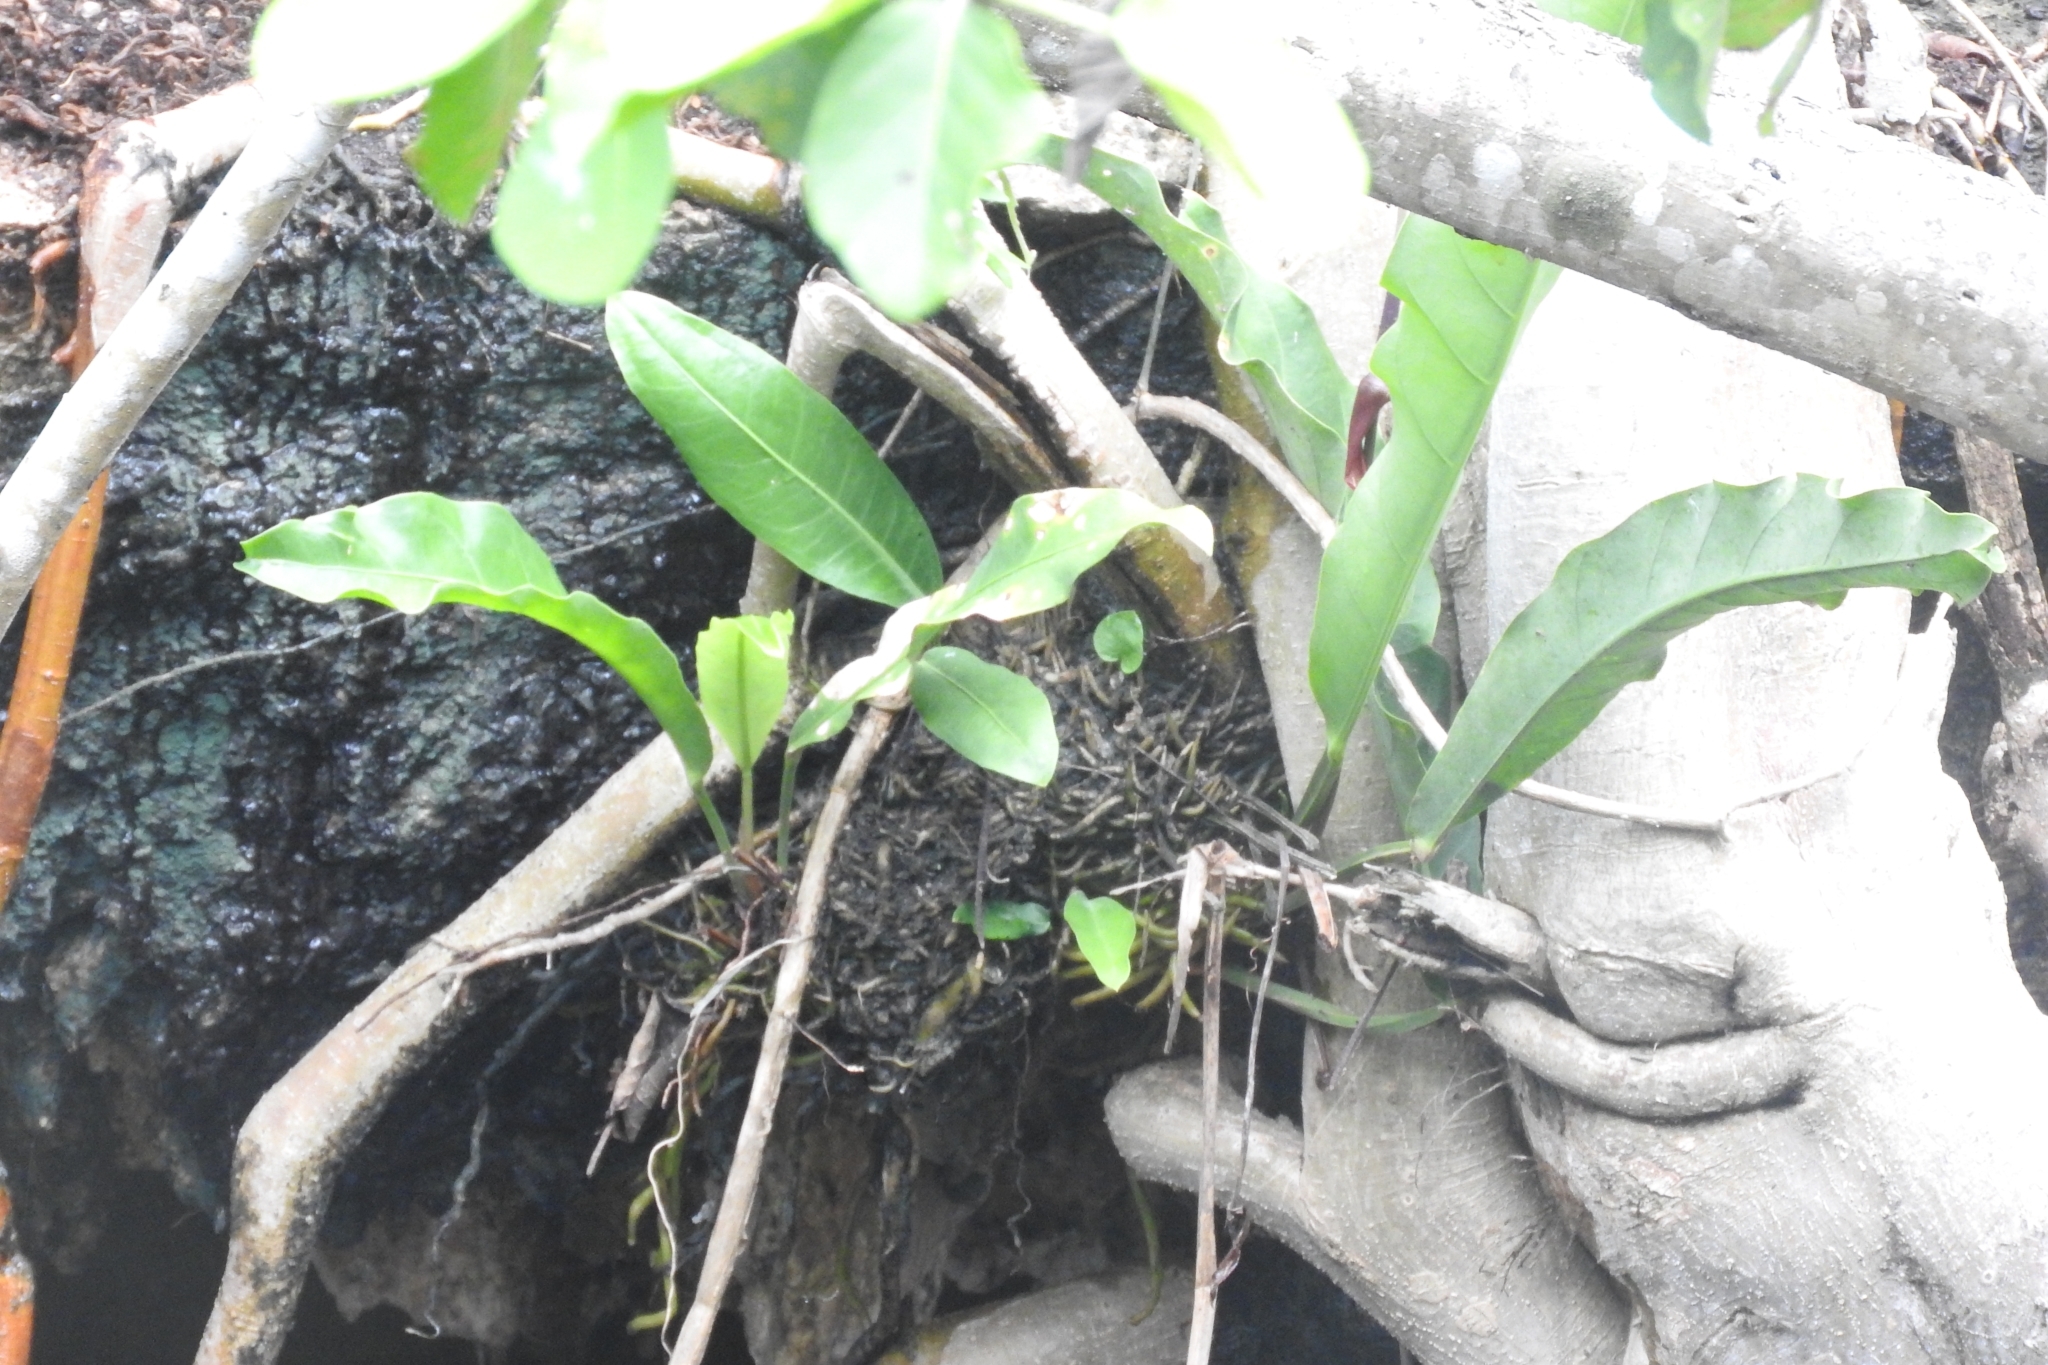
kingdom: Plantae
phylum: Tracheophyta
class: Liliopsida
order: Alismatales
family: Araceae
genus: Anthurium
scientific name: Anthurium schlechtendalii
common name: Laceleaf
